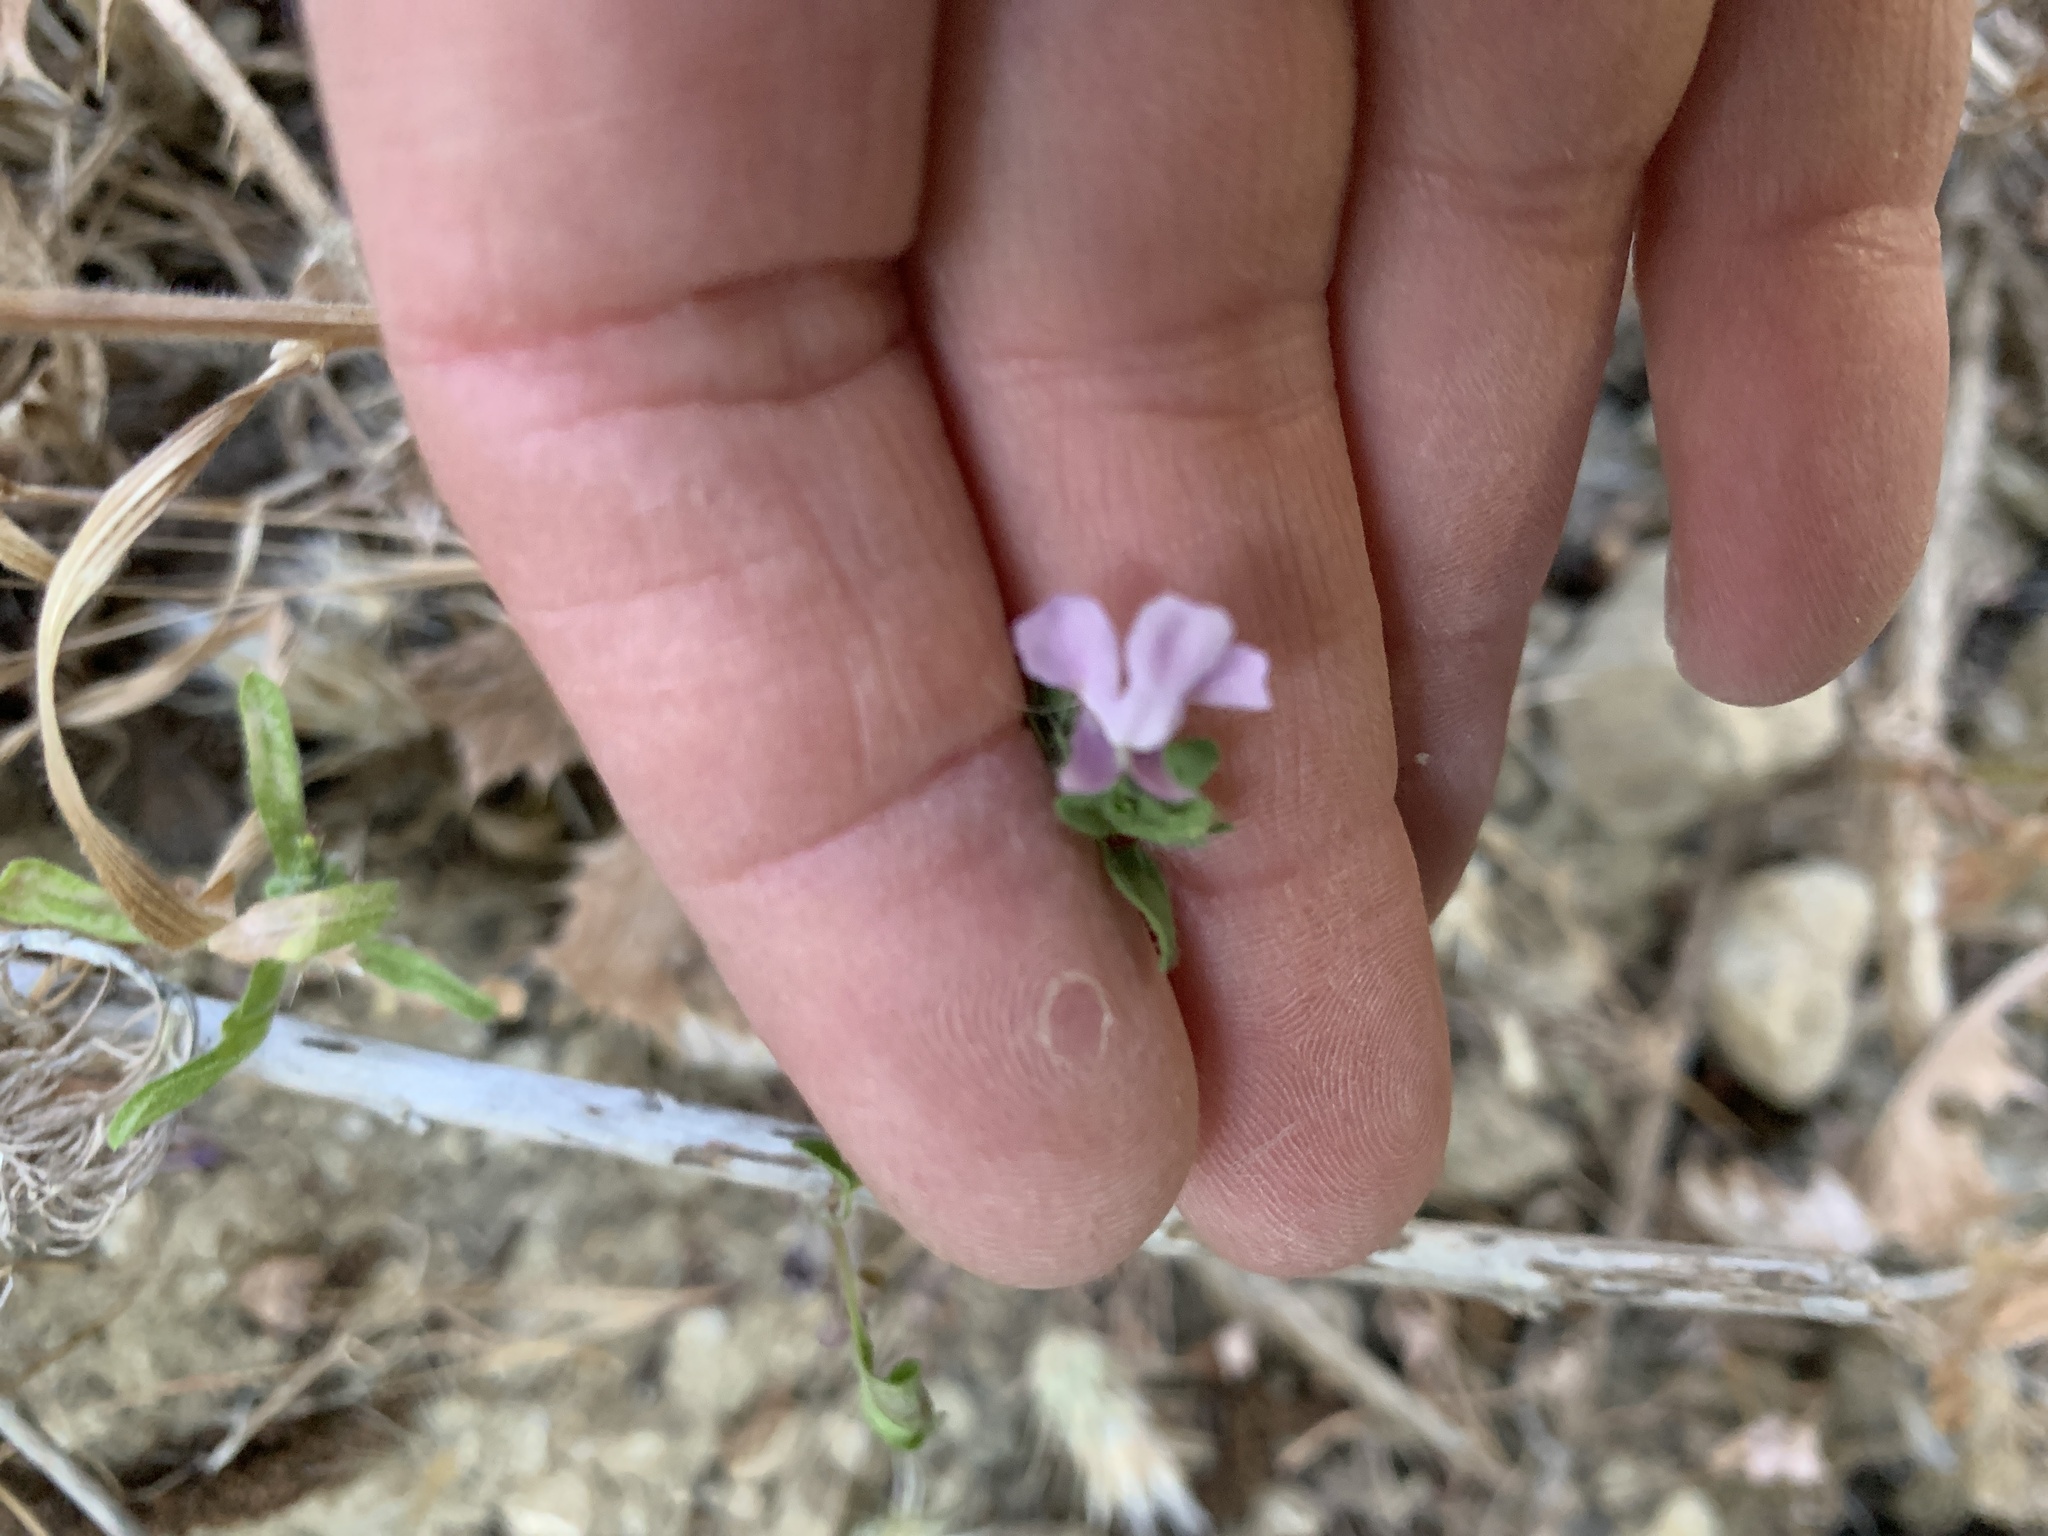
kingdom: Plantae
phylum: Tracheophyta
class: Magnoliopsida
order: Lamiales
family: Plantaginaceae
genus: Sairocarpus
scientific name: Sairocarpus vexillocalyculatus
